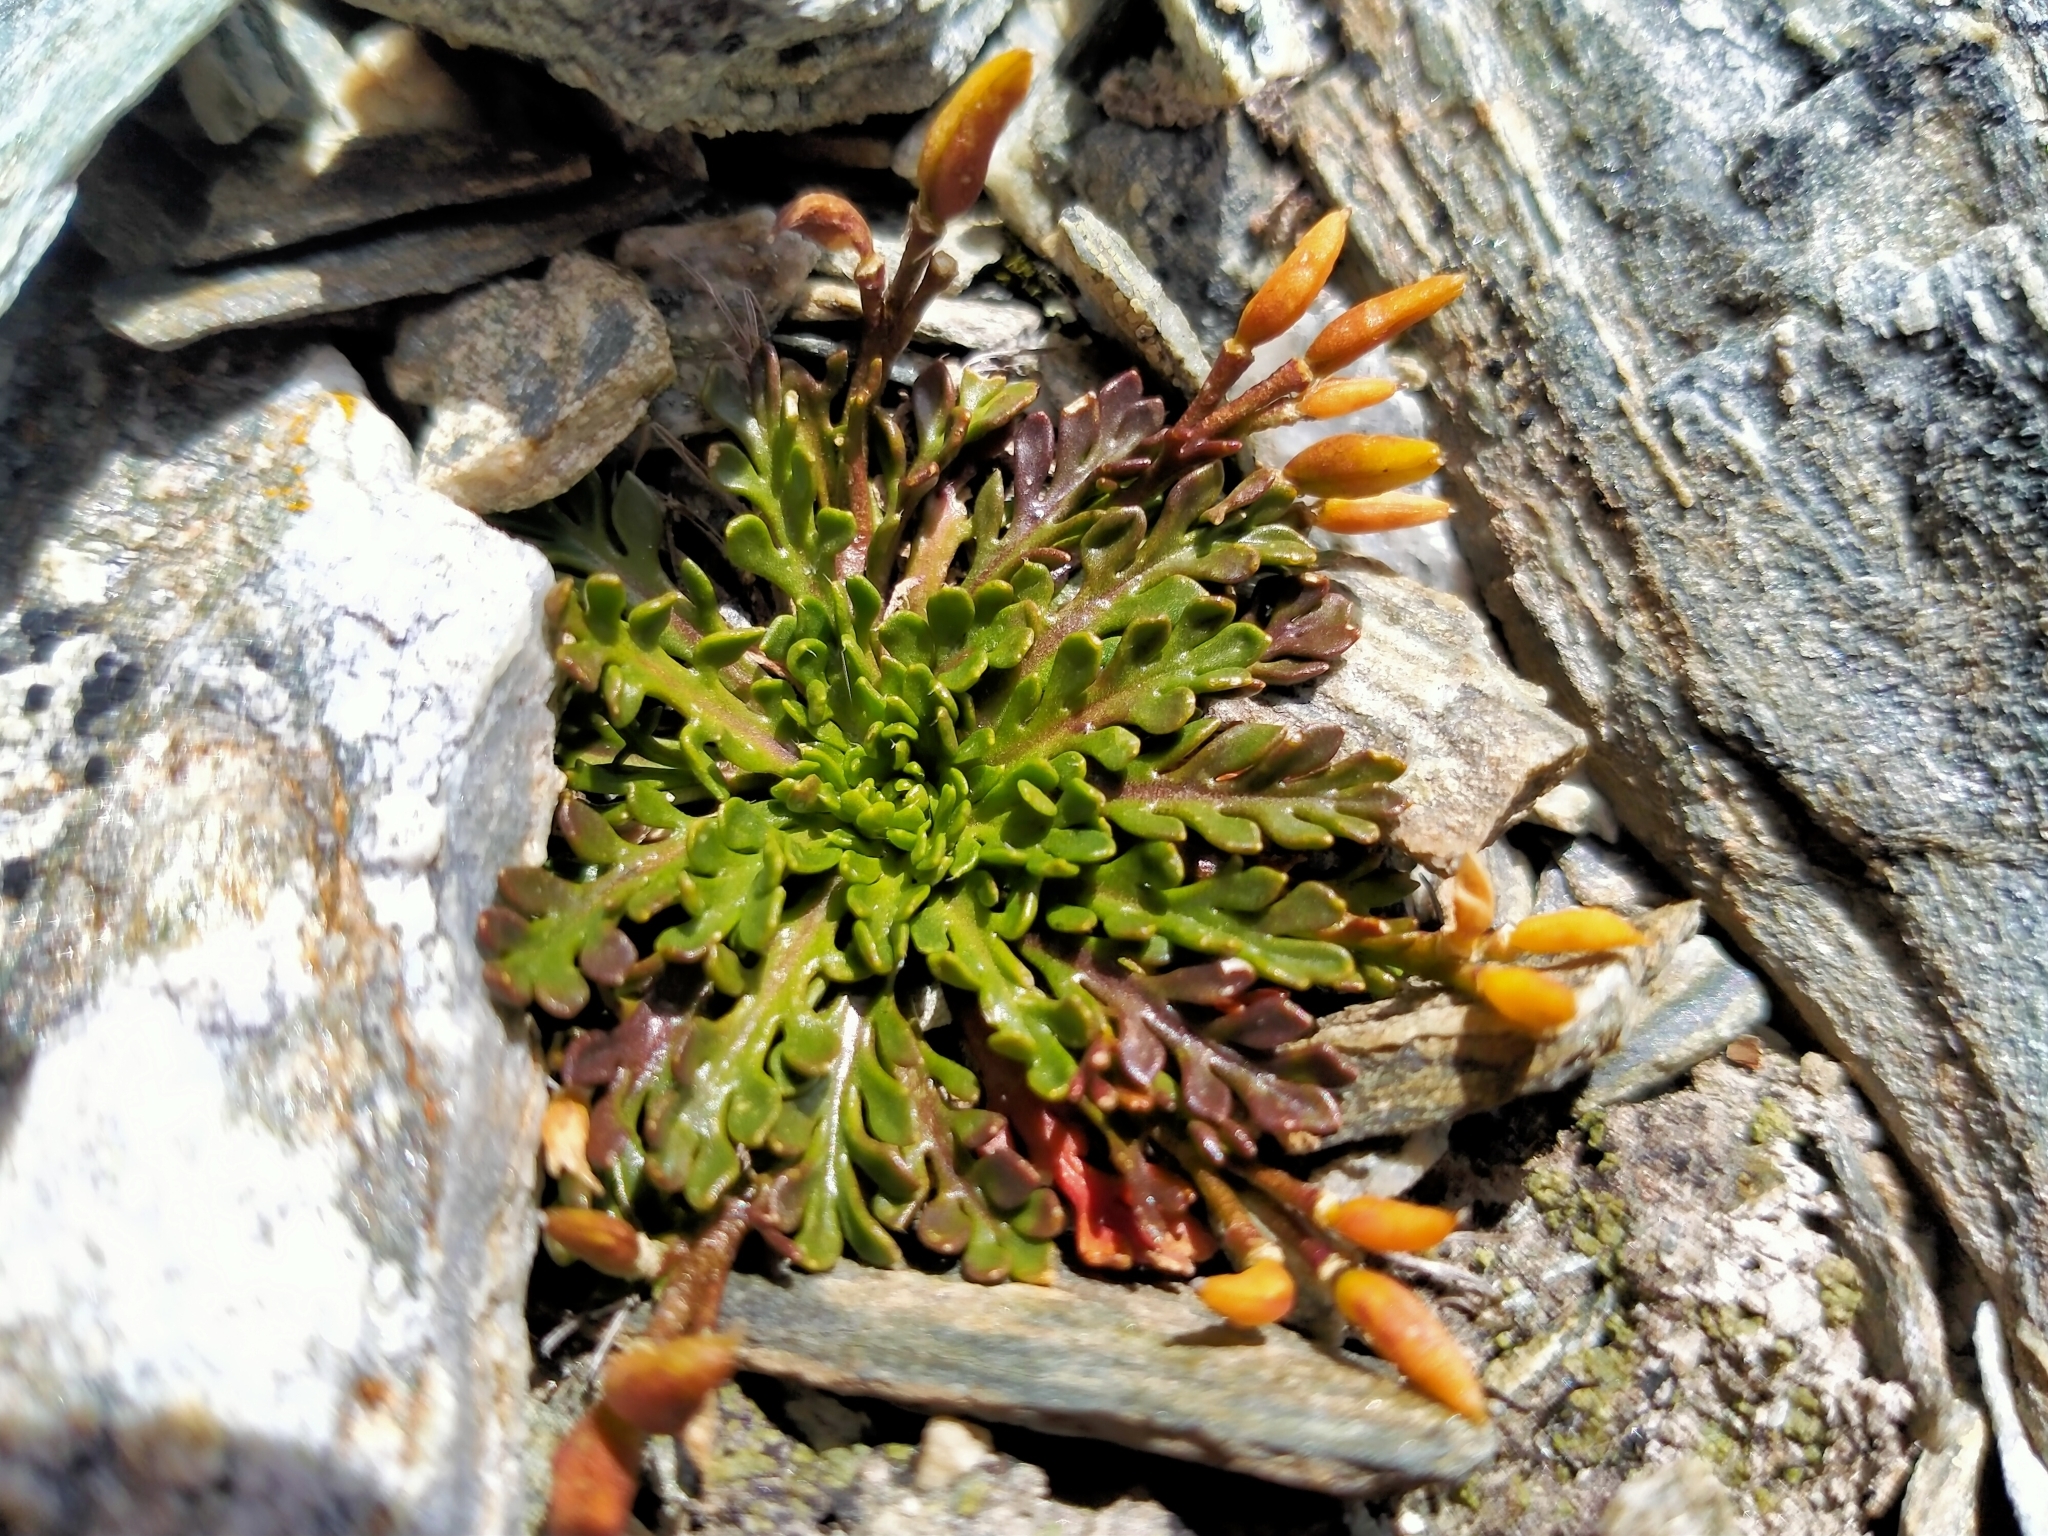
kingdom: Plantae
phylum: Tracheophyta
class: Magnoliopsida
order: Brassicales
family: Brassicaceae
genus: Pachycladon
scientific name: Pachycladon novae-zelandiae
